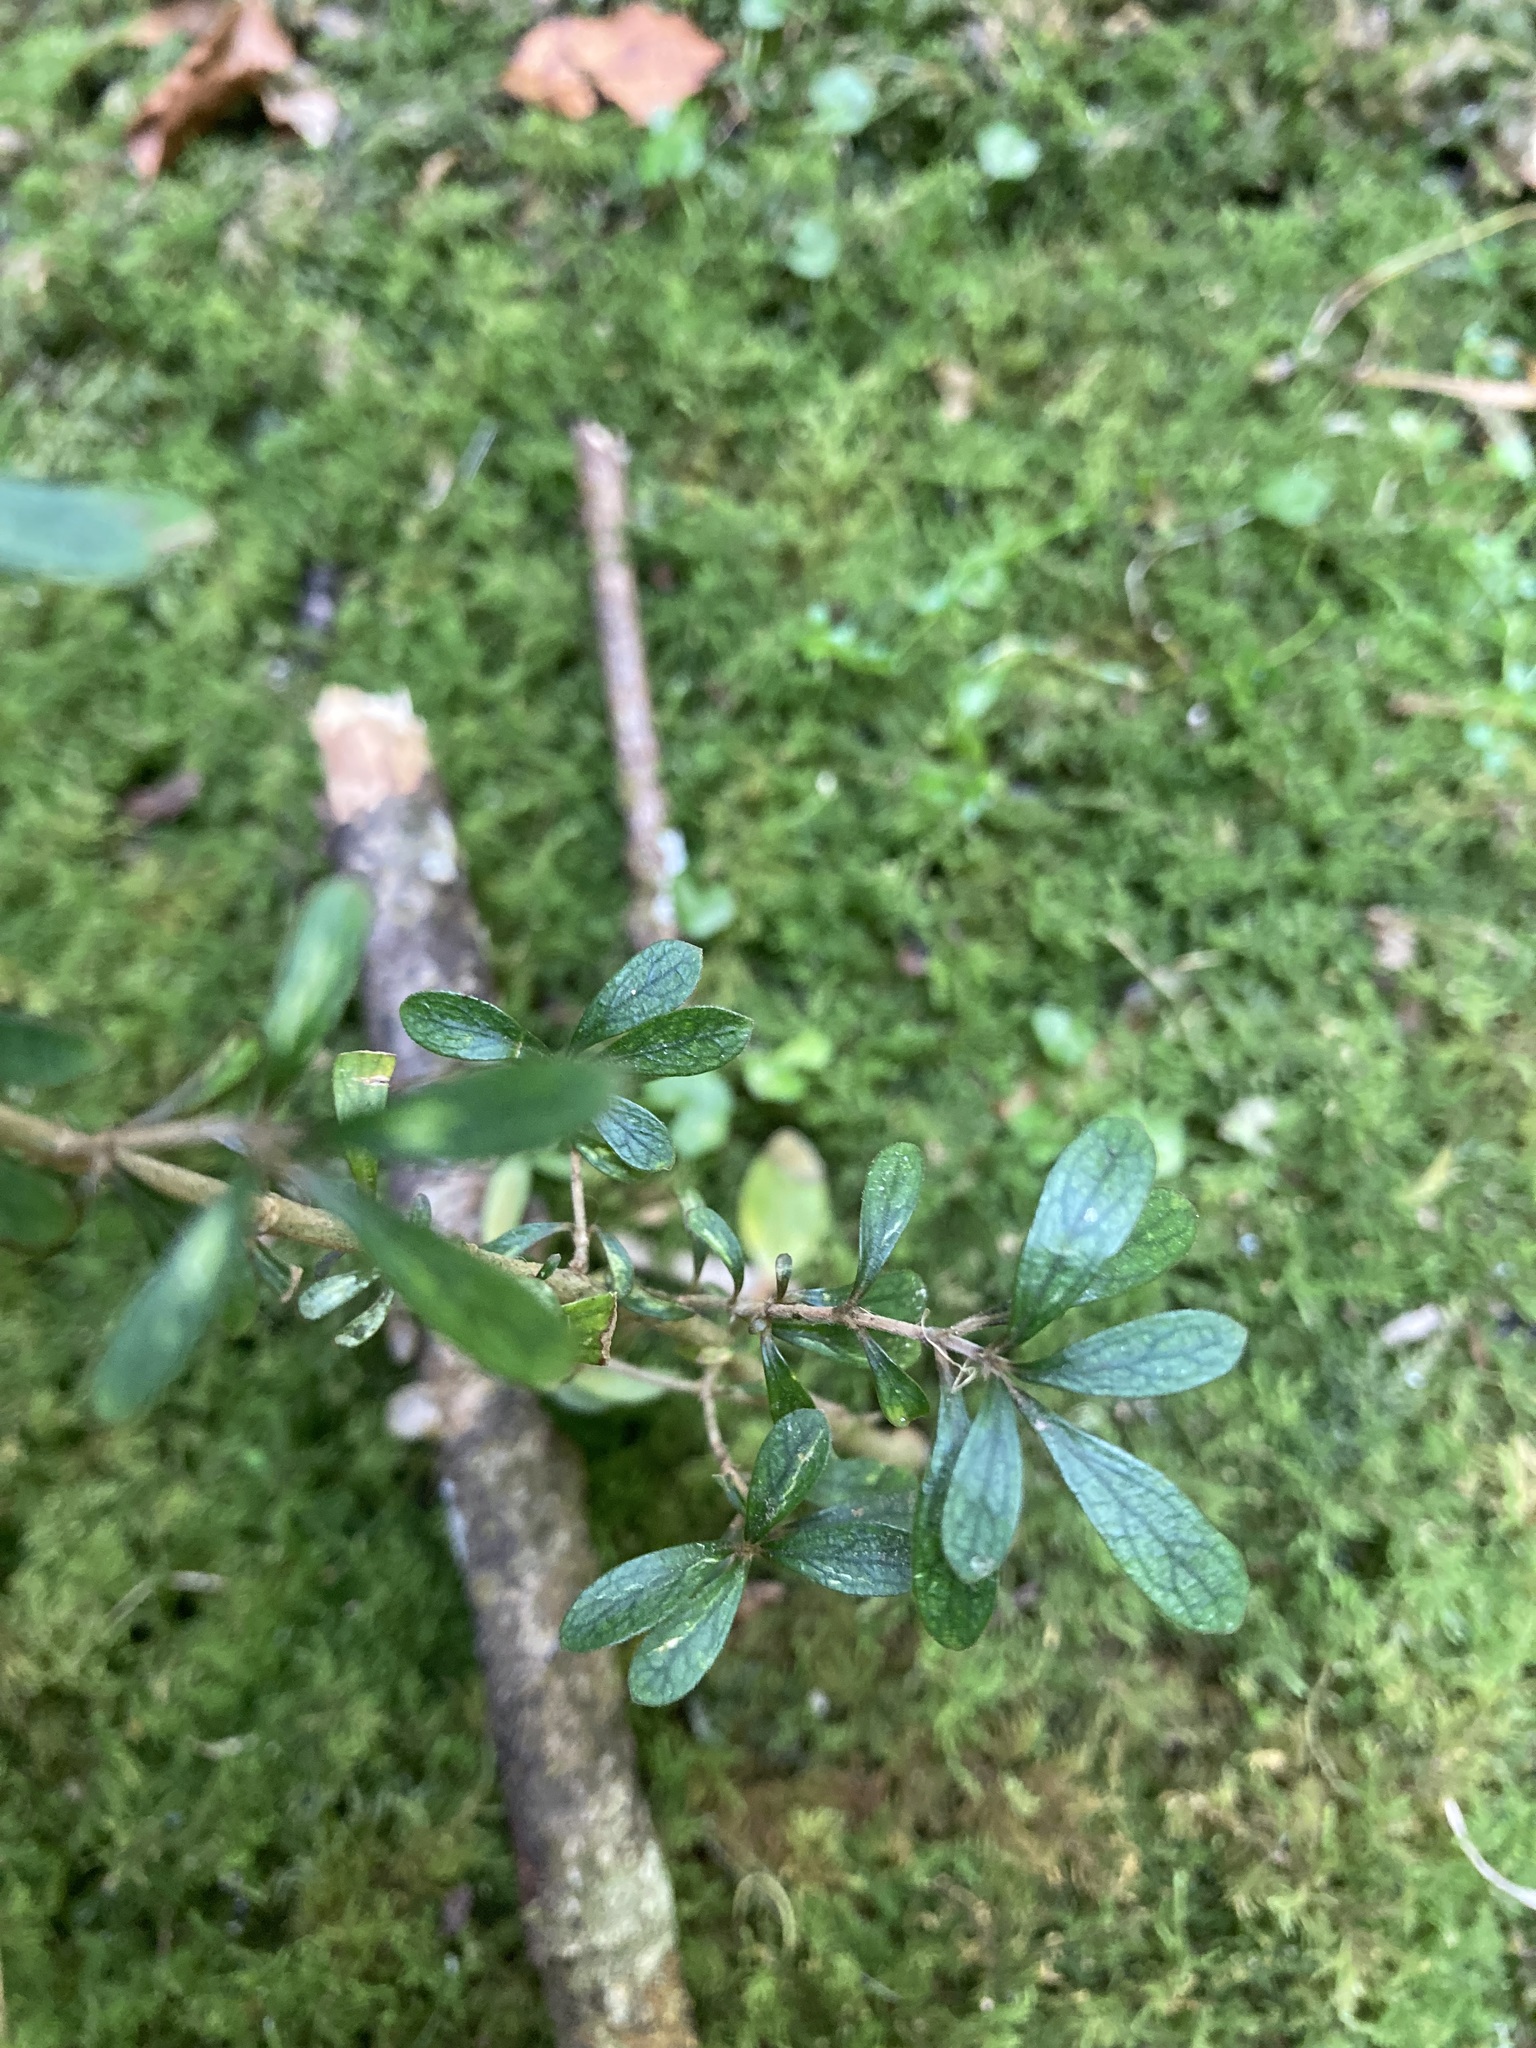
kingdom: Plantae
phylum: Tracheophyta
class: Magnoliopsida
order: Gentianales
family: Rubiaceae
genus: Coprosma
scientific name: Coprosma dumosa
